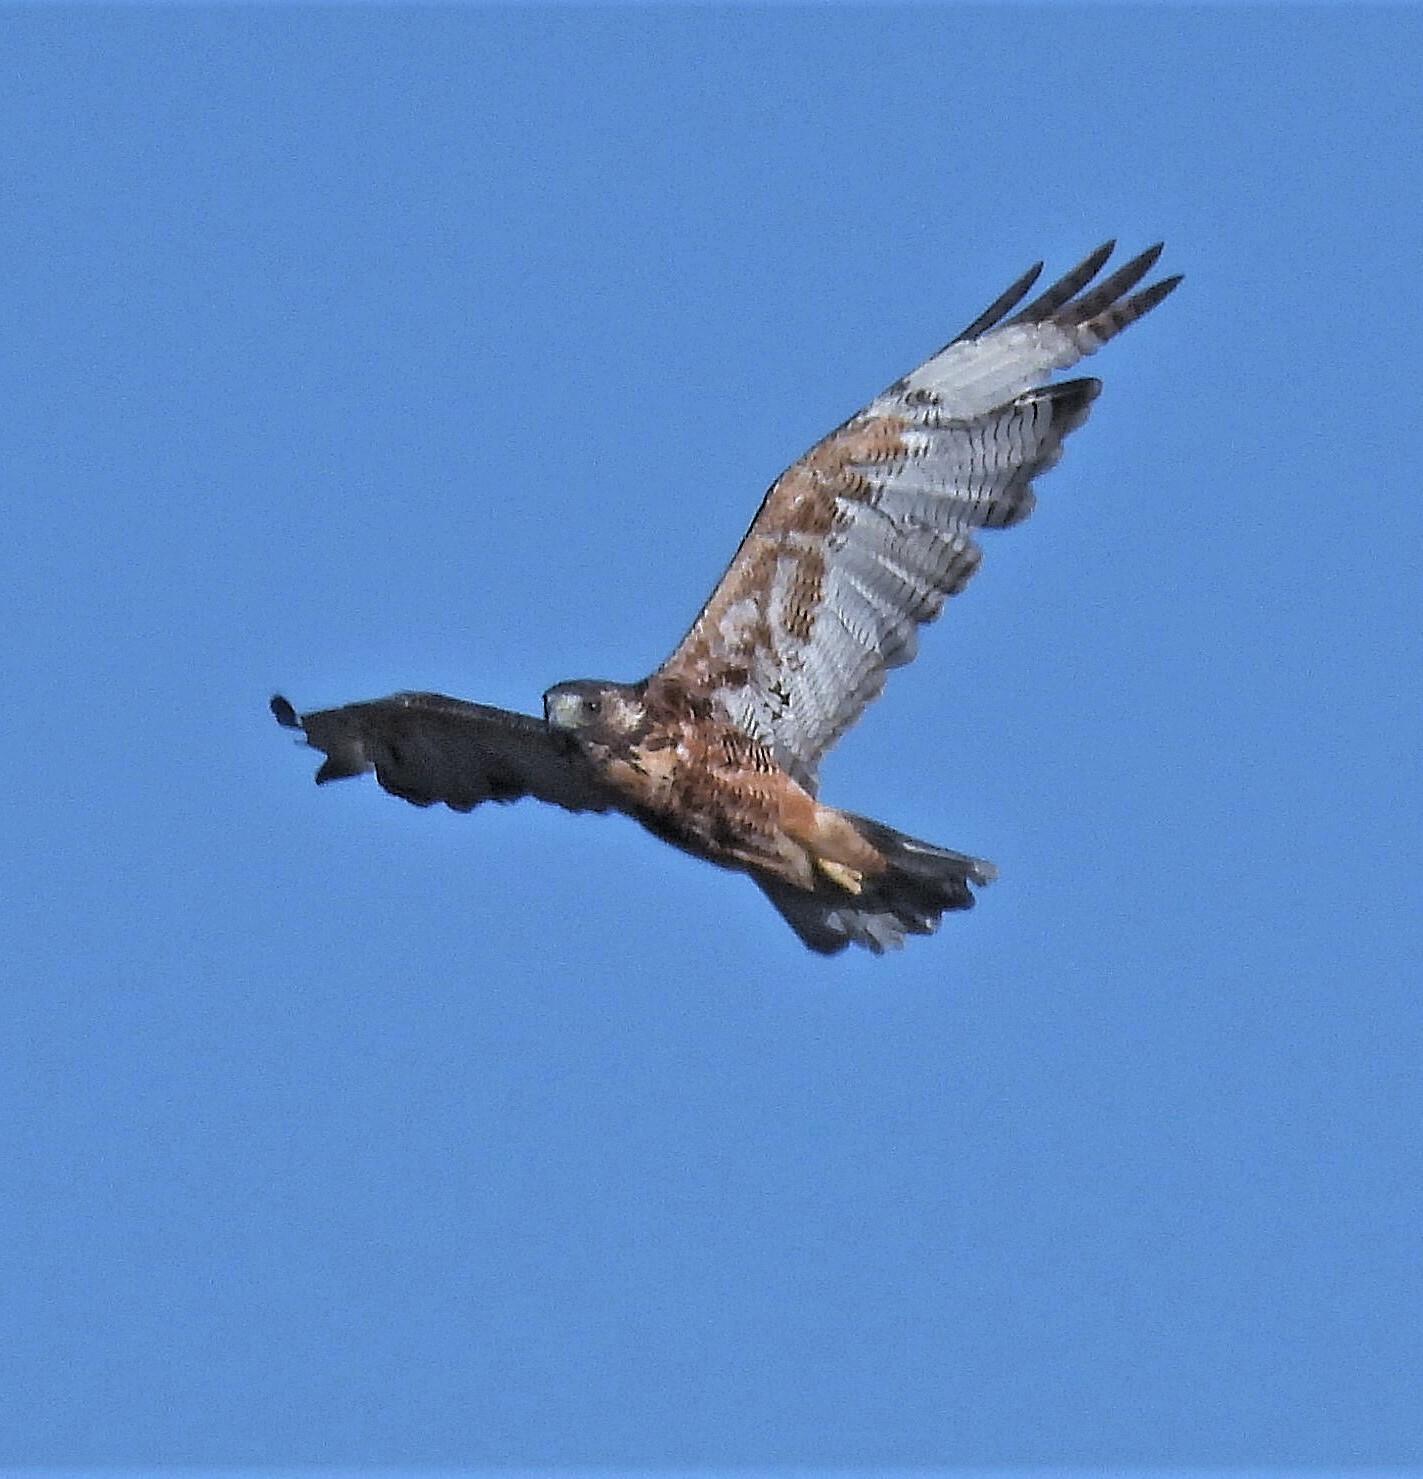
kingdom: Animalia
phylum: Chordata
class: Aves
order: Accipitriformes
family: Accipitridae
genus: Buteo
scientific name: Buteo polyosoma
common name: Variable hawk
